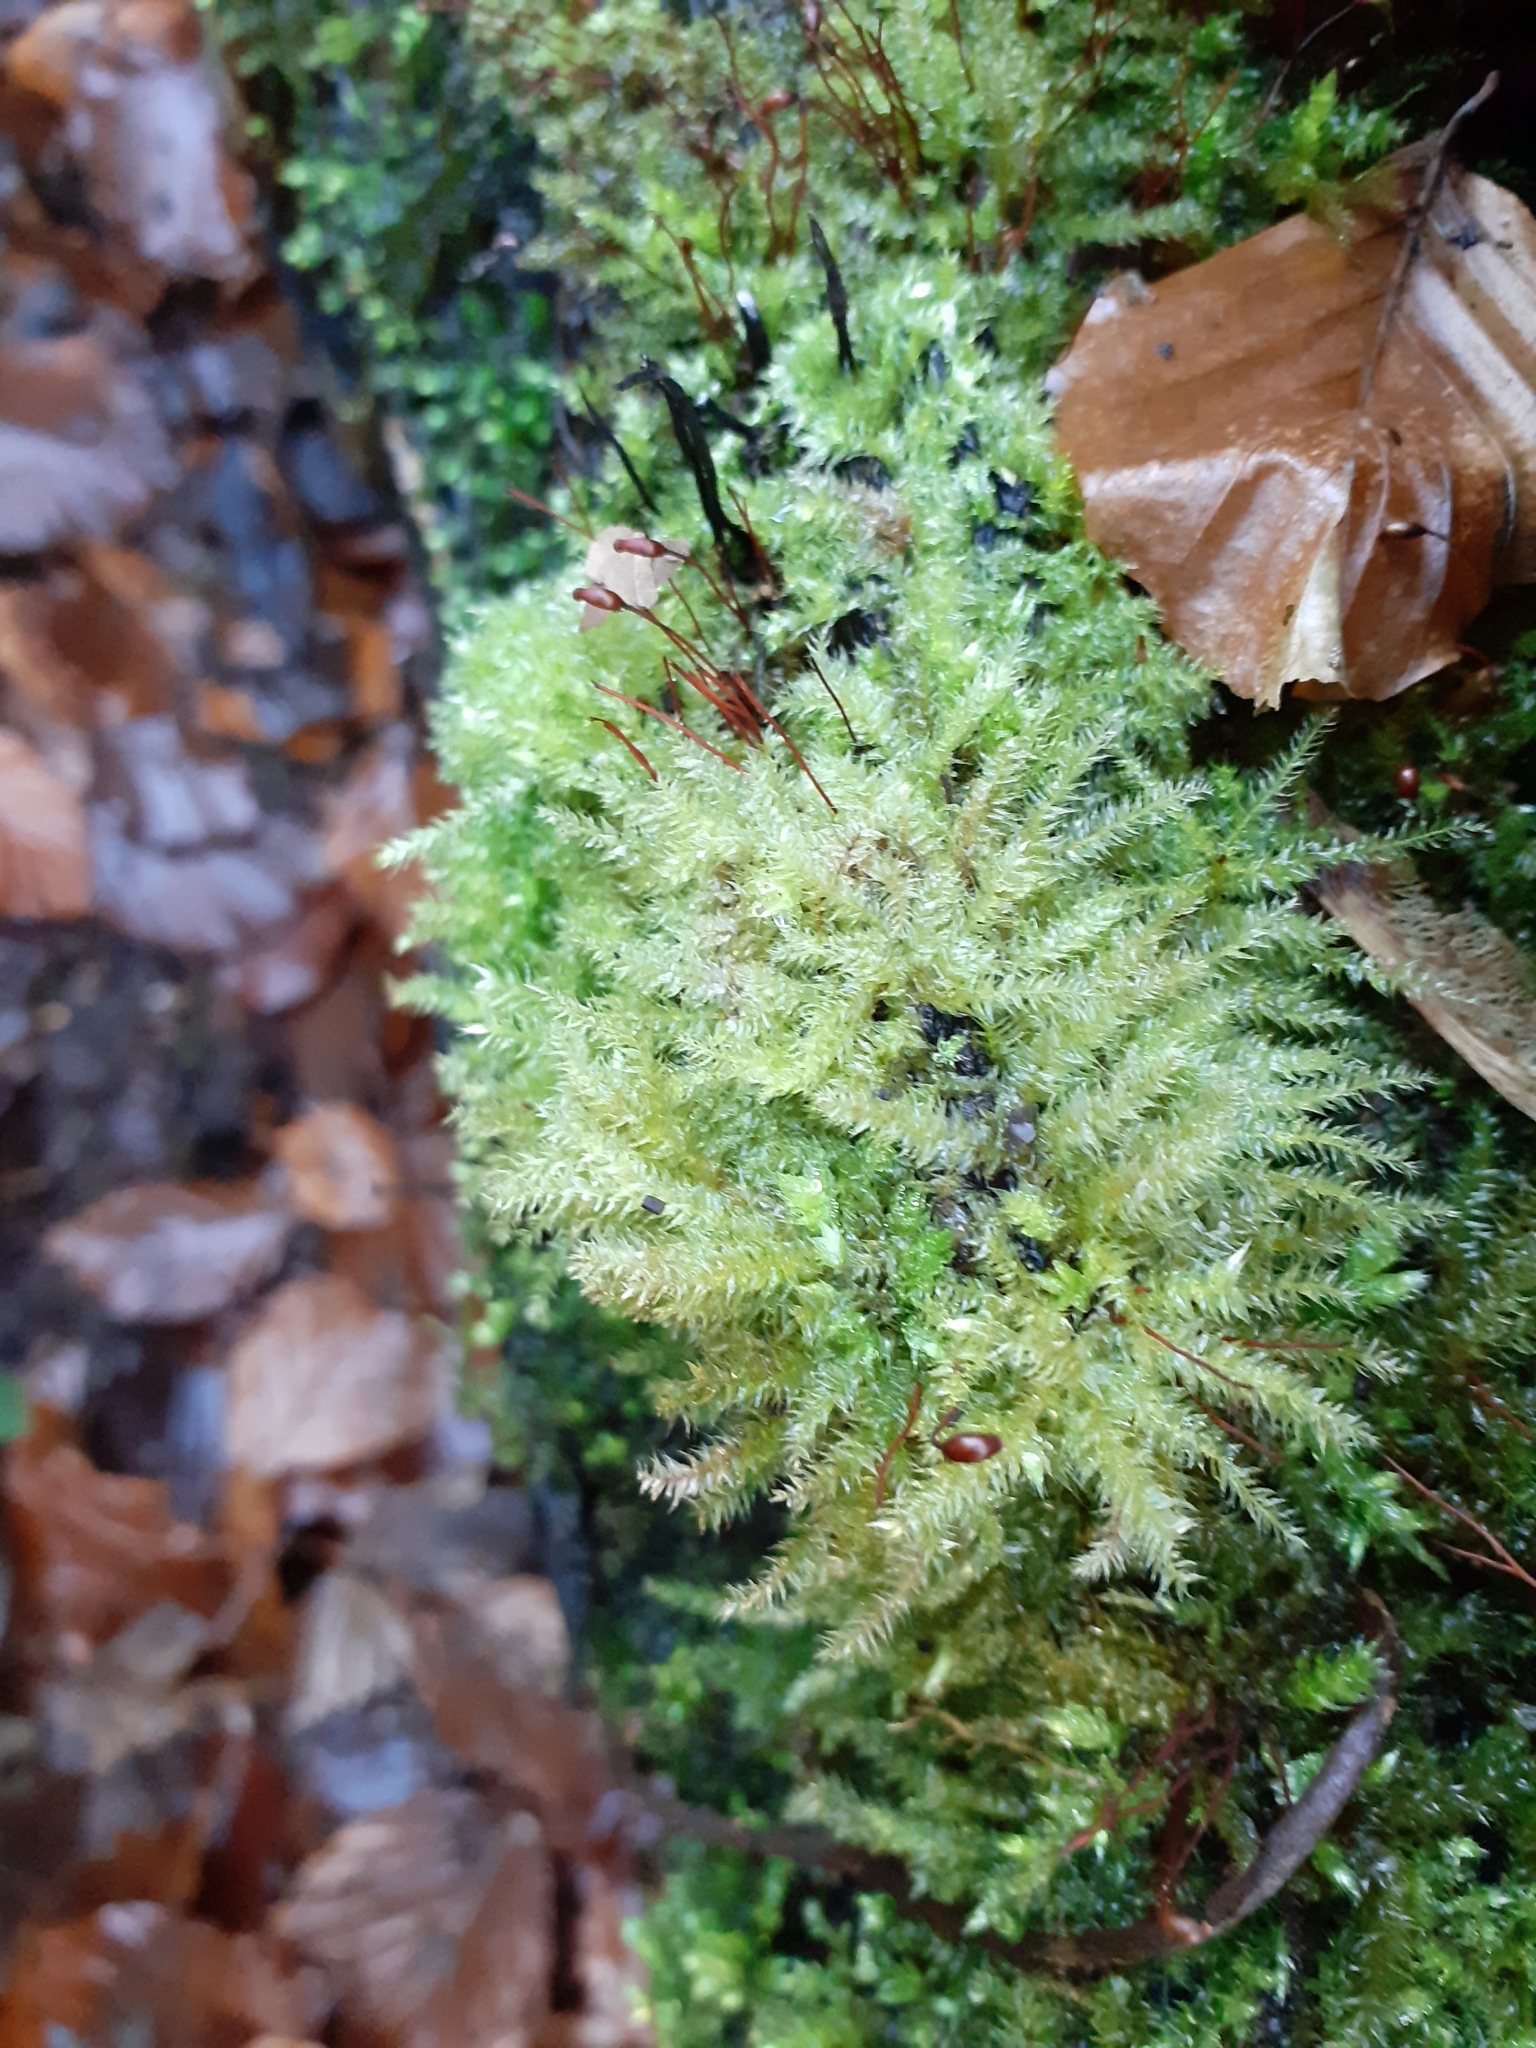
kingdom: Plantae
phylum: Bryophyta
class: Bryopsida
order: Hypnales
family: Brachytheciaceae
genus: Brachythecium
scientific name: Brachythecium rutabulum
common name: Rough-stalked feather-moss
